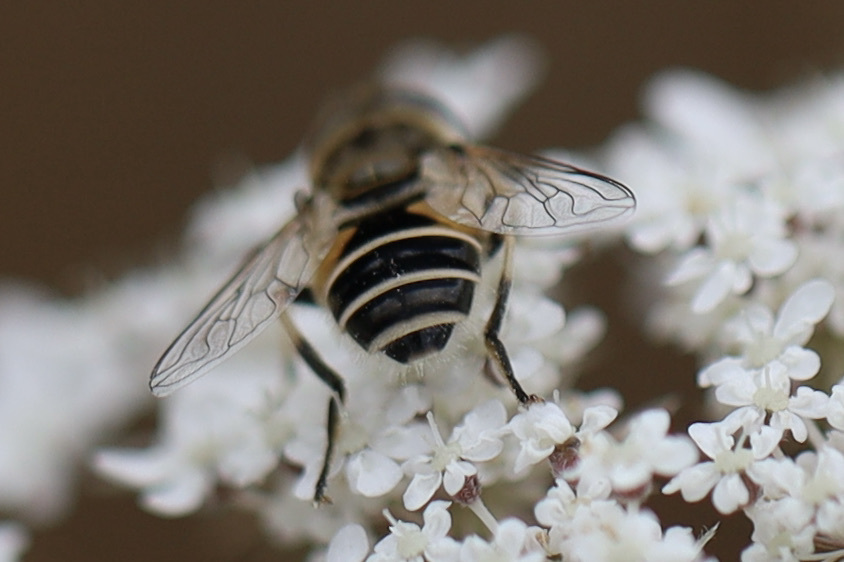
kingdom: Animalia
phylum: Arthropoda
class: Insecta
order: Diptera
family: Syrphidae
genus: Eristalis
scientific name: Eristalis arbustorum
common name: Hover fly
